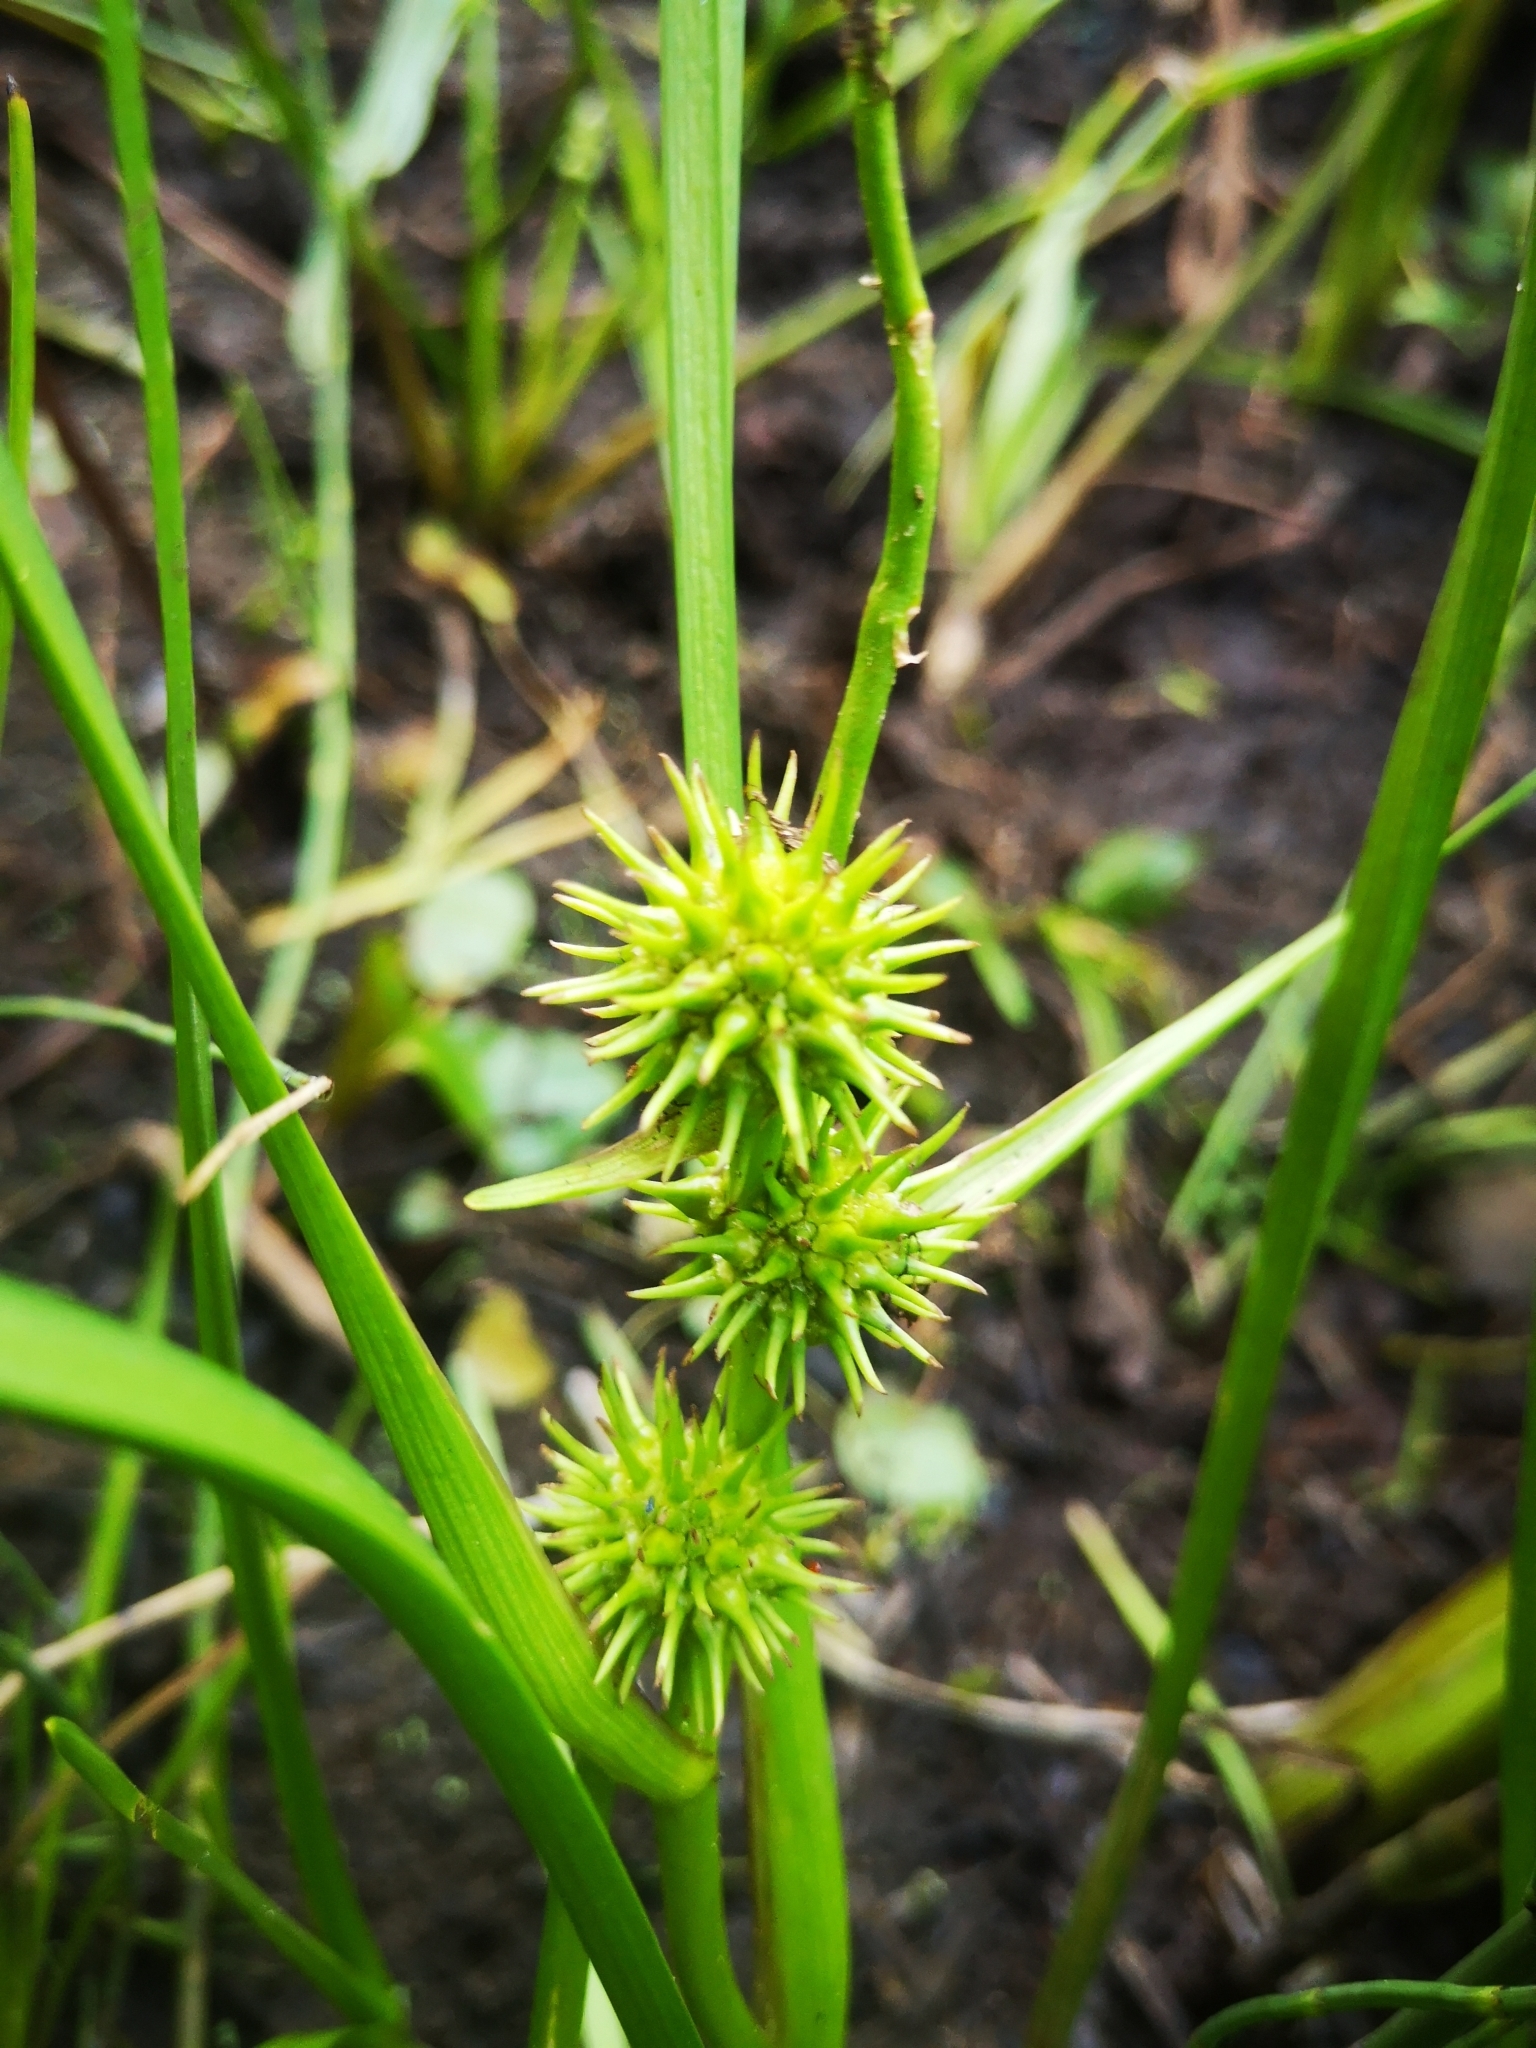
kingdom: Plantae
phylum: Tracheophyta
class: Liliopsida
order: Poales
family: Typhaceae
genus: Sparganium
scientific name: Sparganium emersum
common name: Unbranched bur-reed
